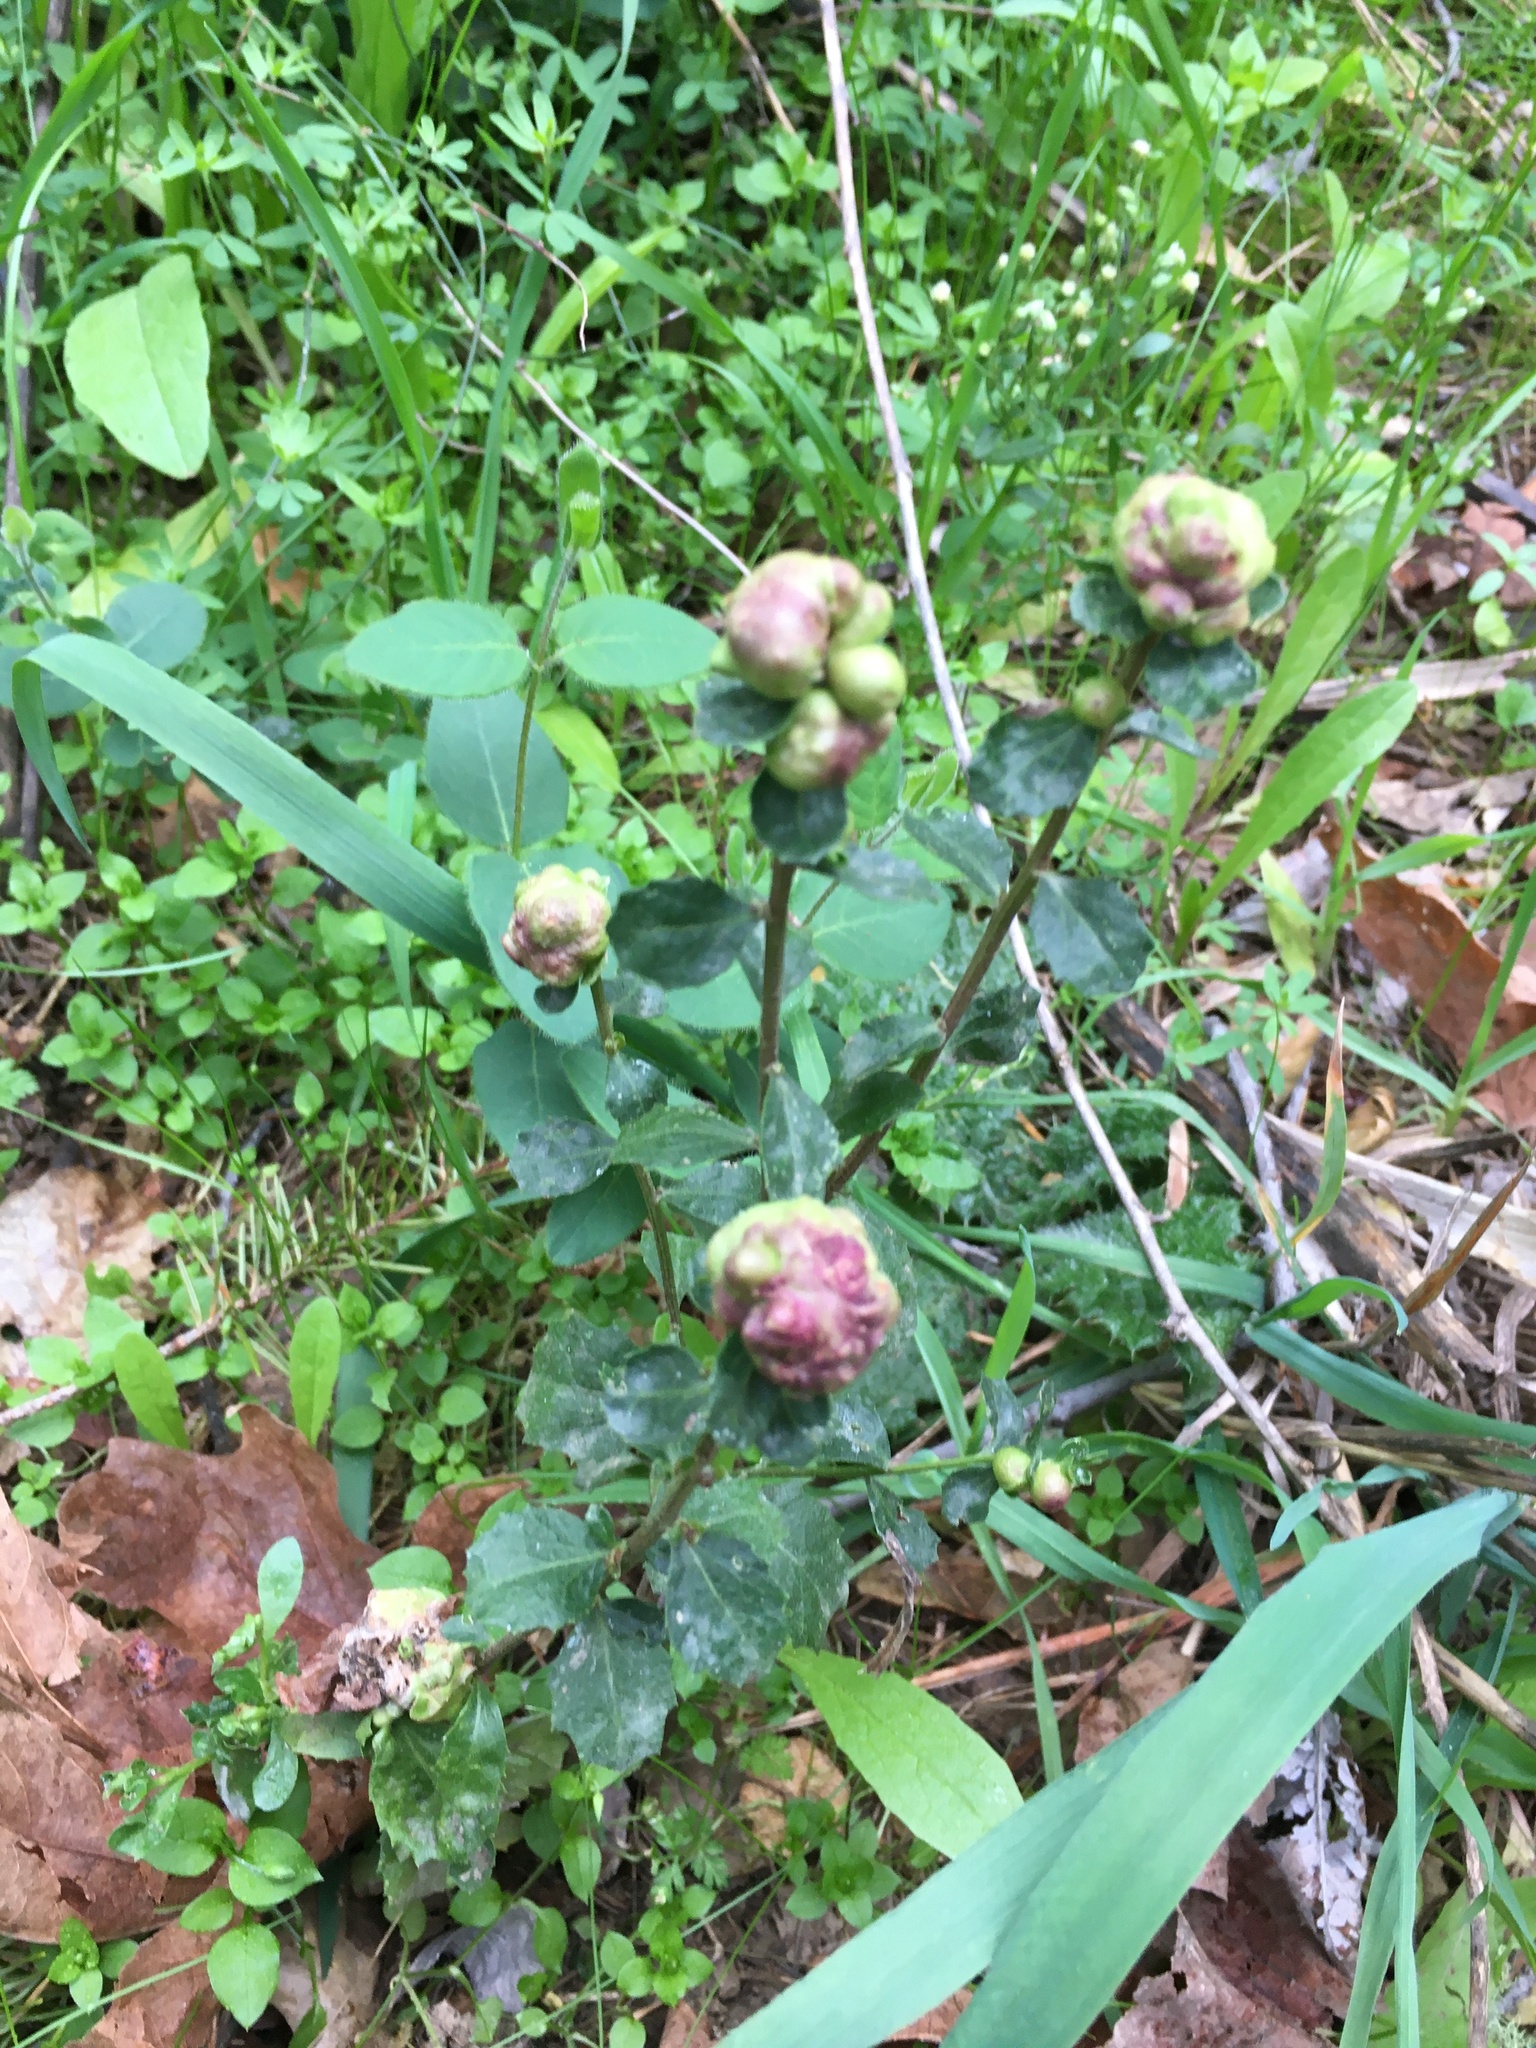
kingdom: Animalia
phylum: Arthropoda
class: Insecta
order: Diptera
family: Cecidomyiidae
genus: Rhopalomyia
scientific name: Rhopalomyia californica
